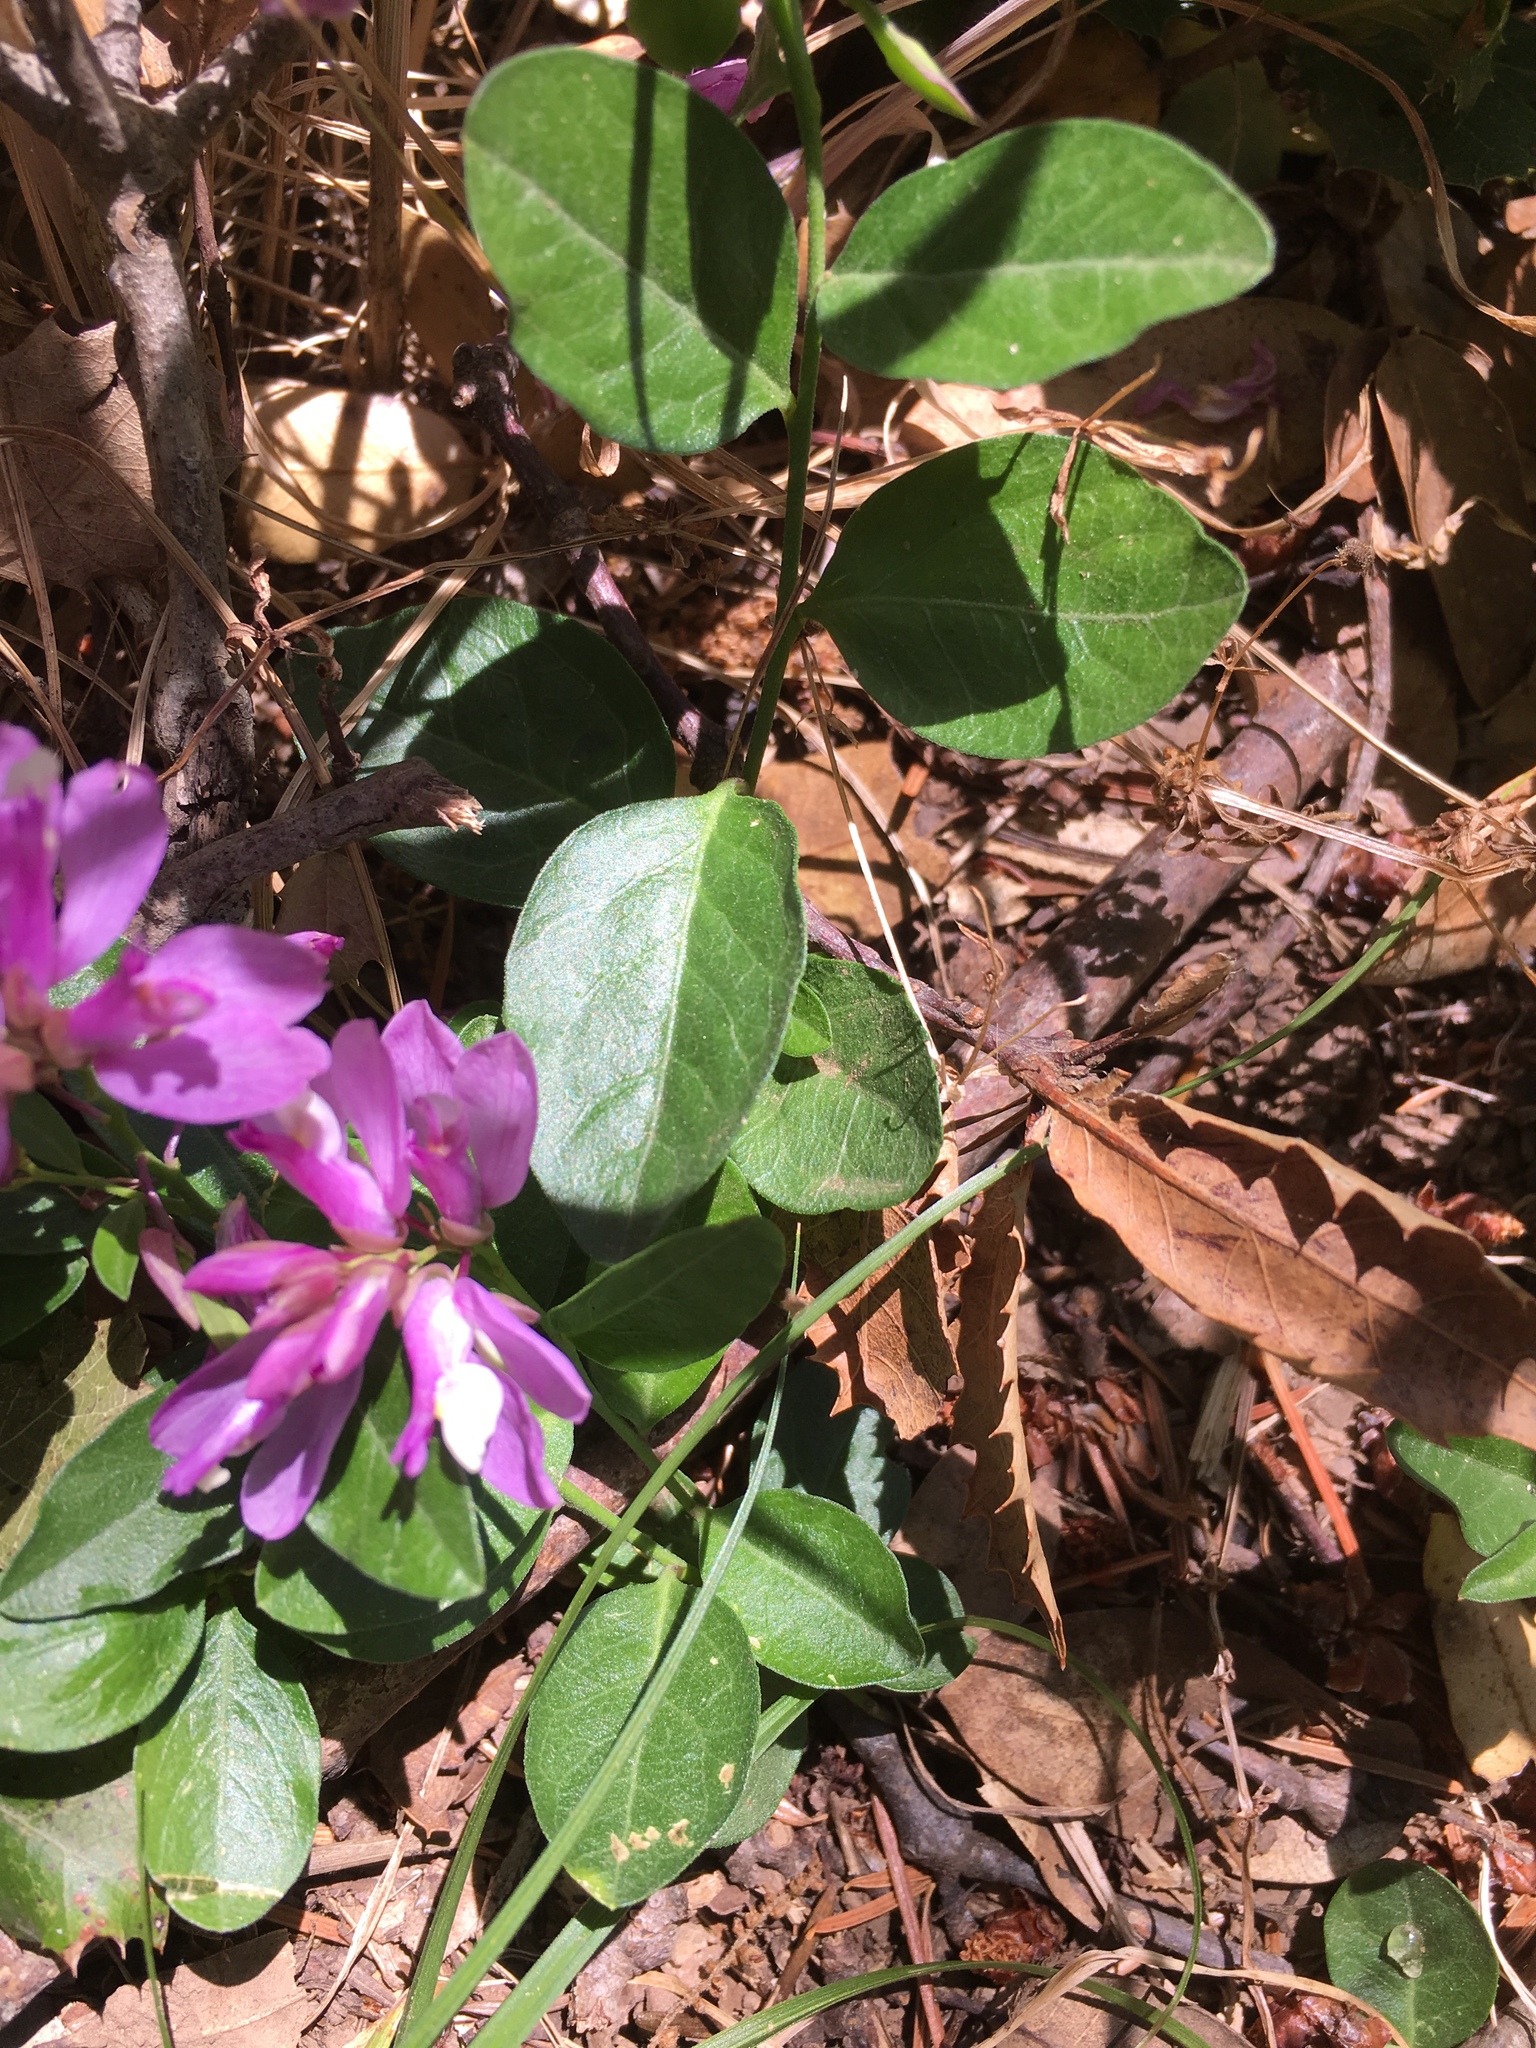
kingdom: Plantae
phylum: Tracheophyta
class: Magnoliopsida
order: Fabales
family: Polygalaceae
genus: Rhinotropis
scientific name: Rhinotropis californica
